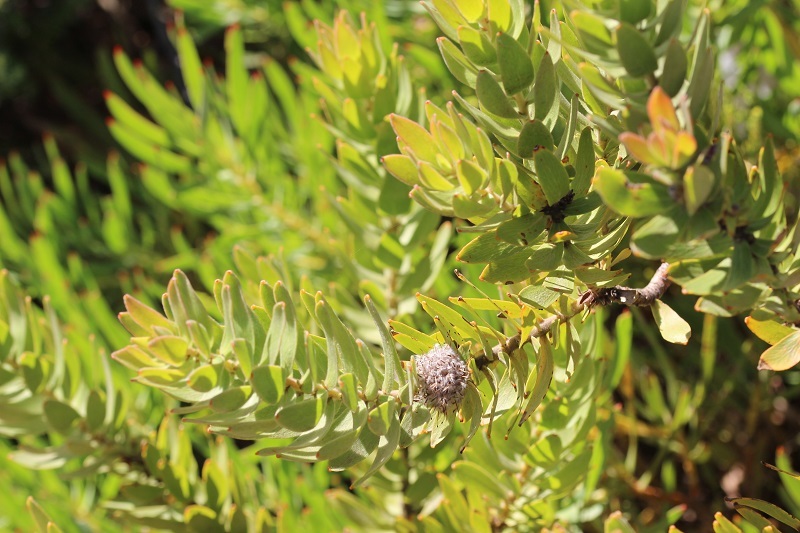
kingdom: Plantae
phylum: Tracheophyta
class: Magnoliopsida
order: Proteales
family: Proteaceae
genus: Leucospermum
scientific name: Leucospermum bolusii
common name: Gordon's bay pincushion
